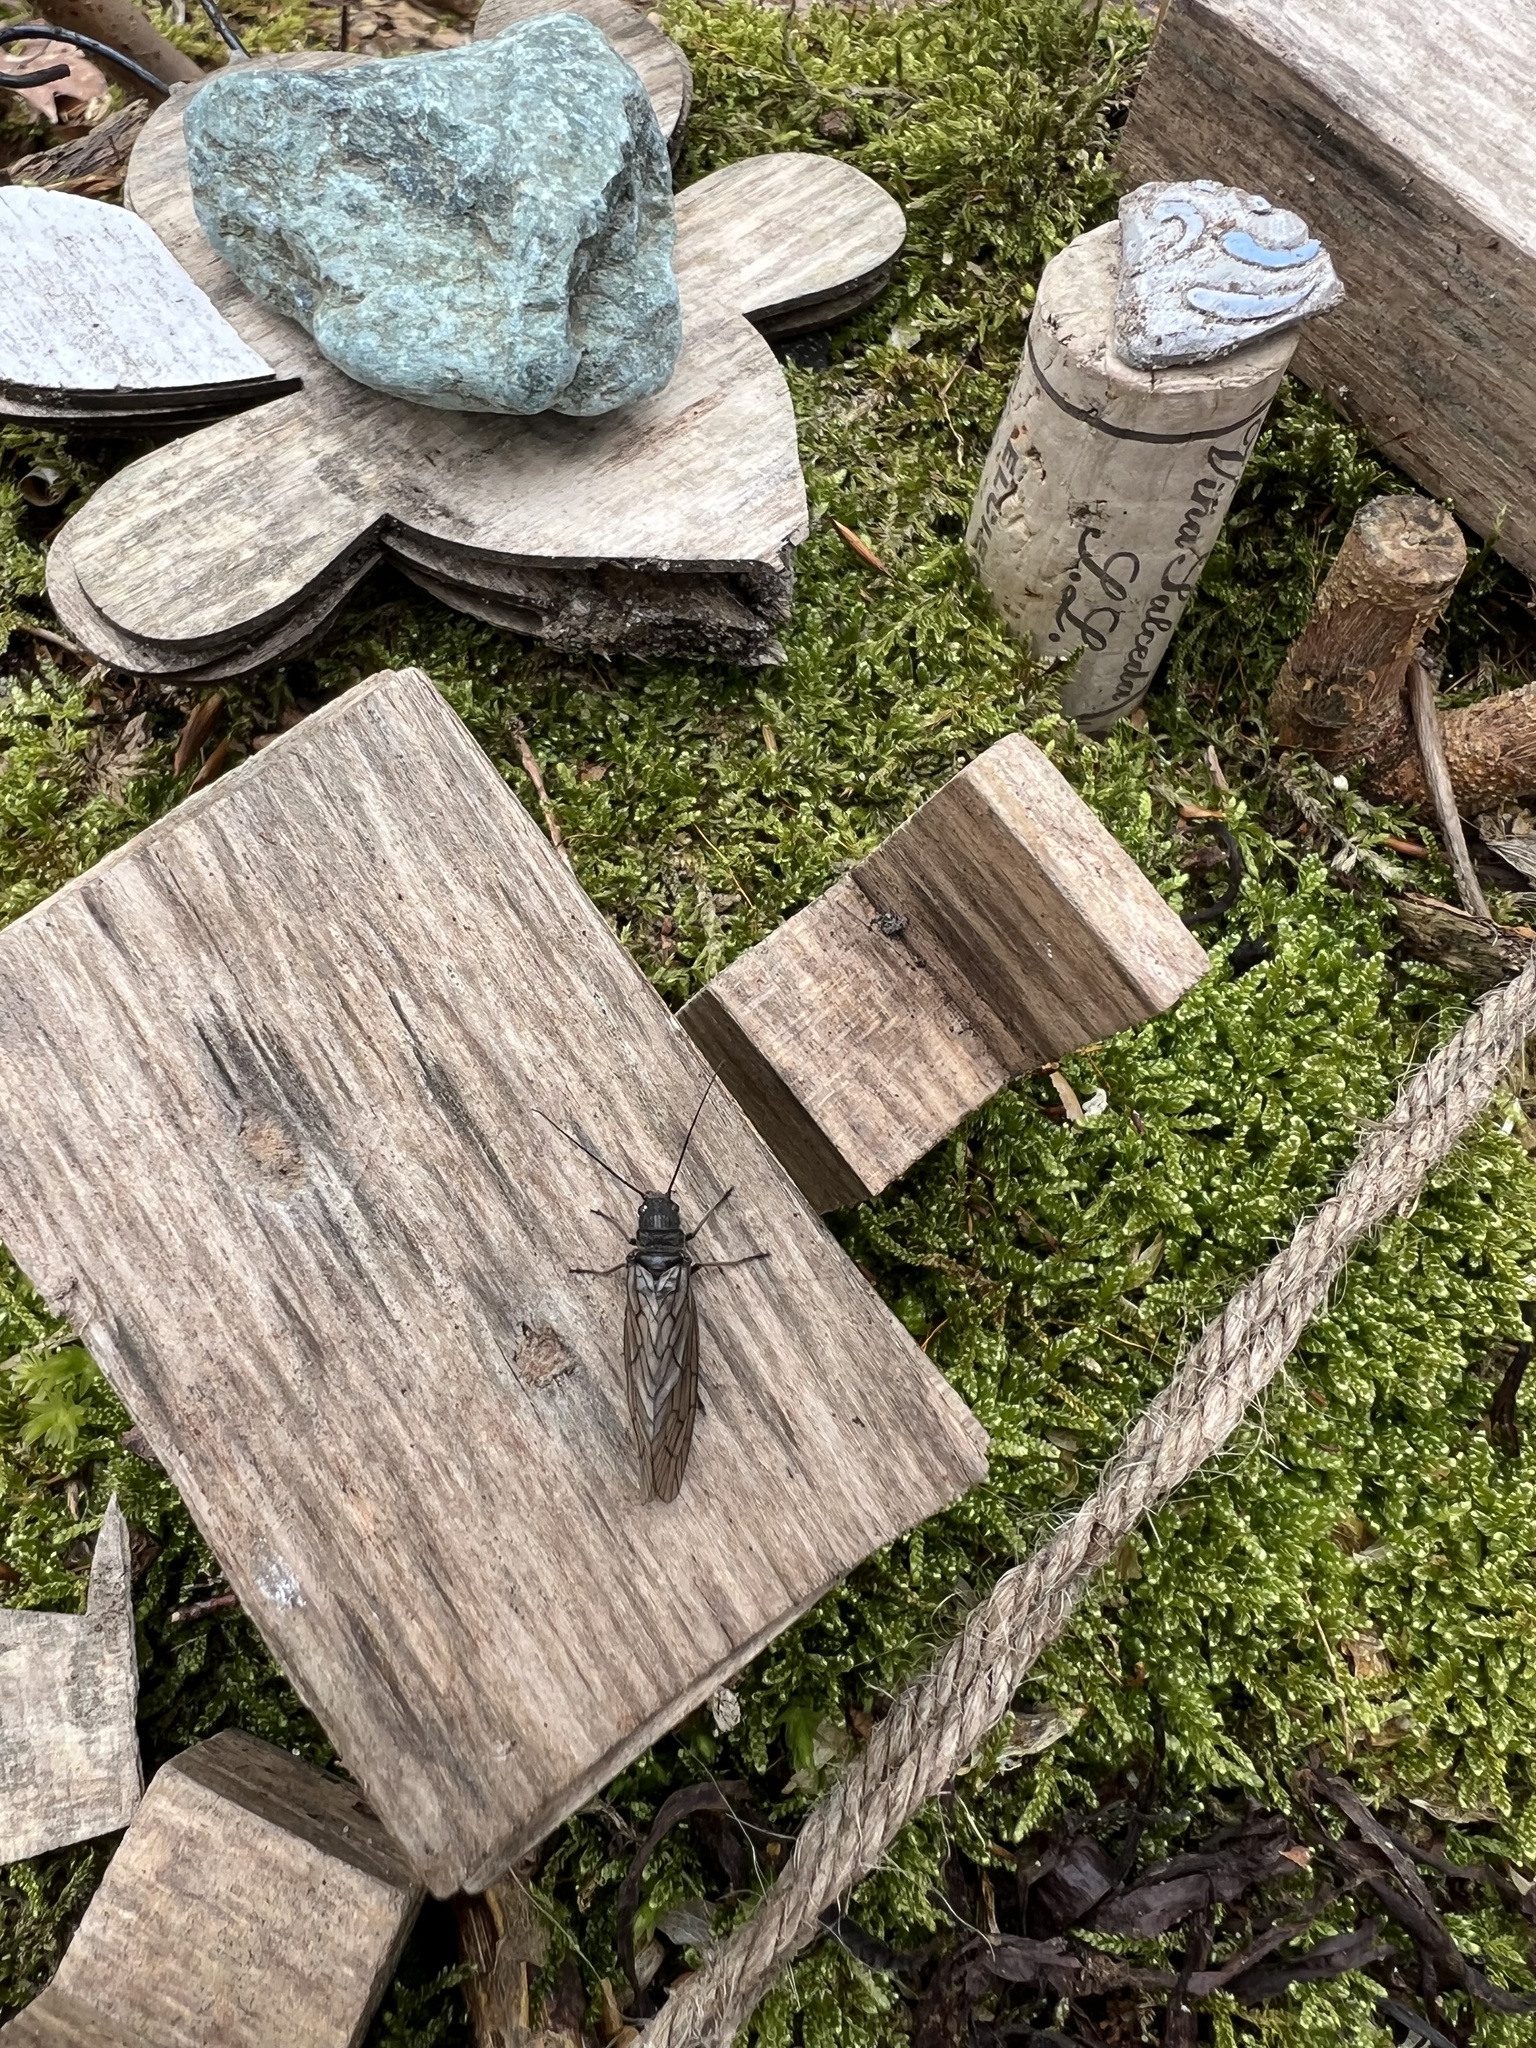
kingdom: Animalia
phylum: Arthropoda
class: Insecta
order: Megaloptera
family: Sialidae
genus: Sialis
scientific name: Sialis
